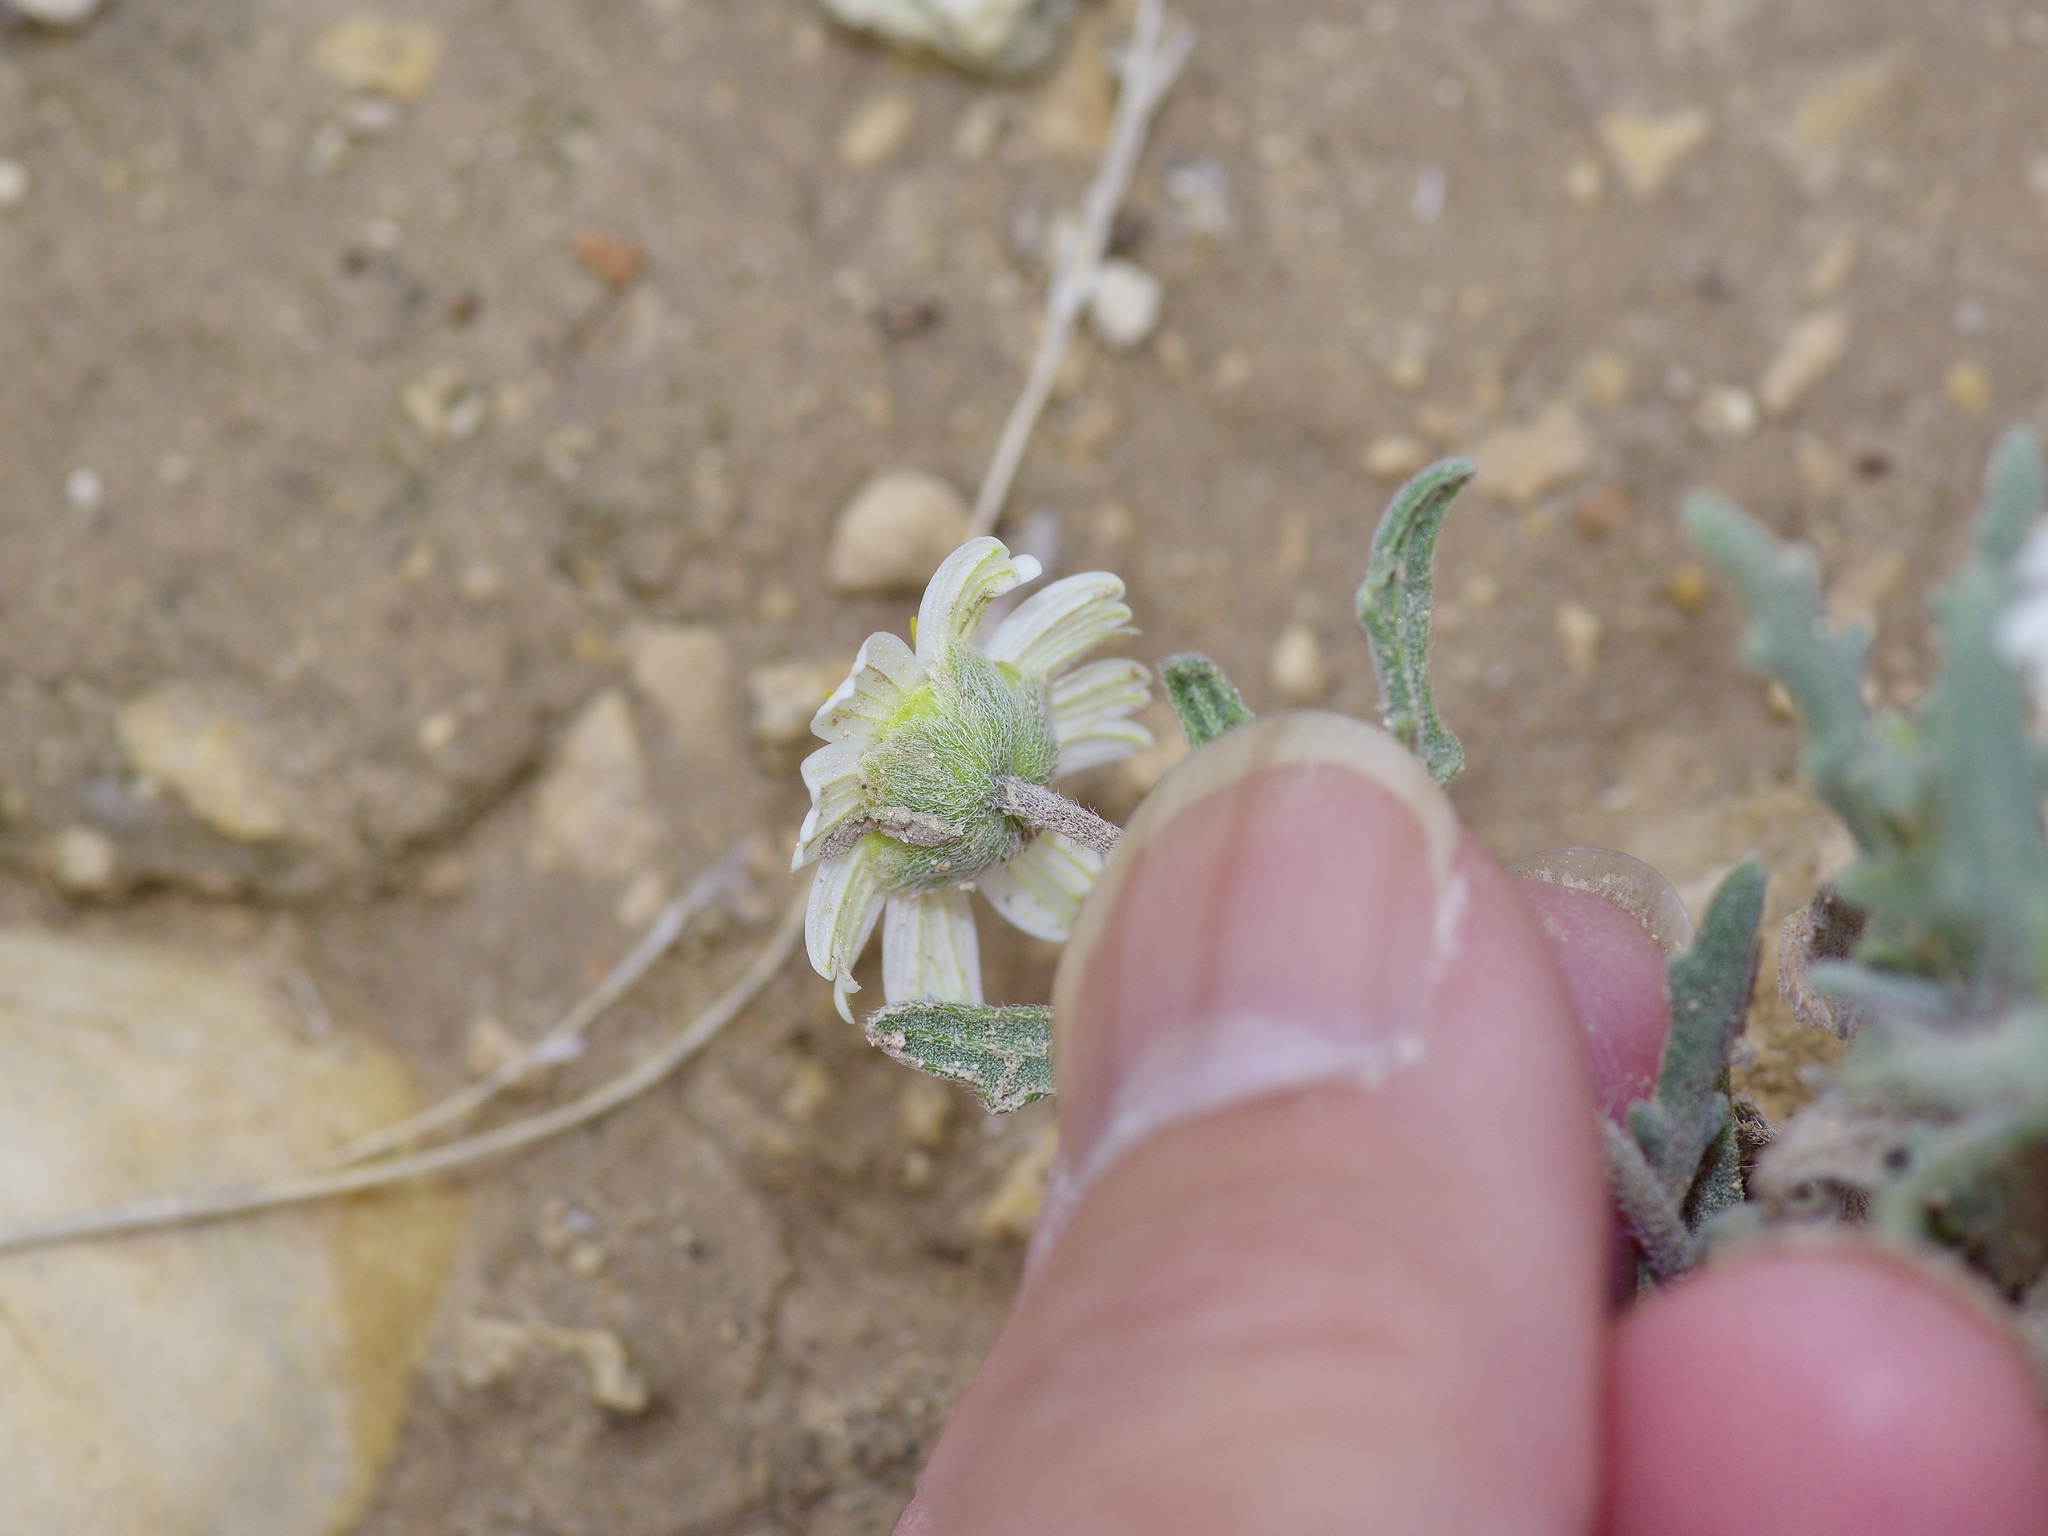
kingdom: Plantae
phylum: Tracheophyta
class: Magnoliopsida
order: Asterales
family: Asteraceae
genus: Melampodium
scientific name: Melampodium leucanthum
